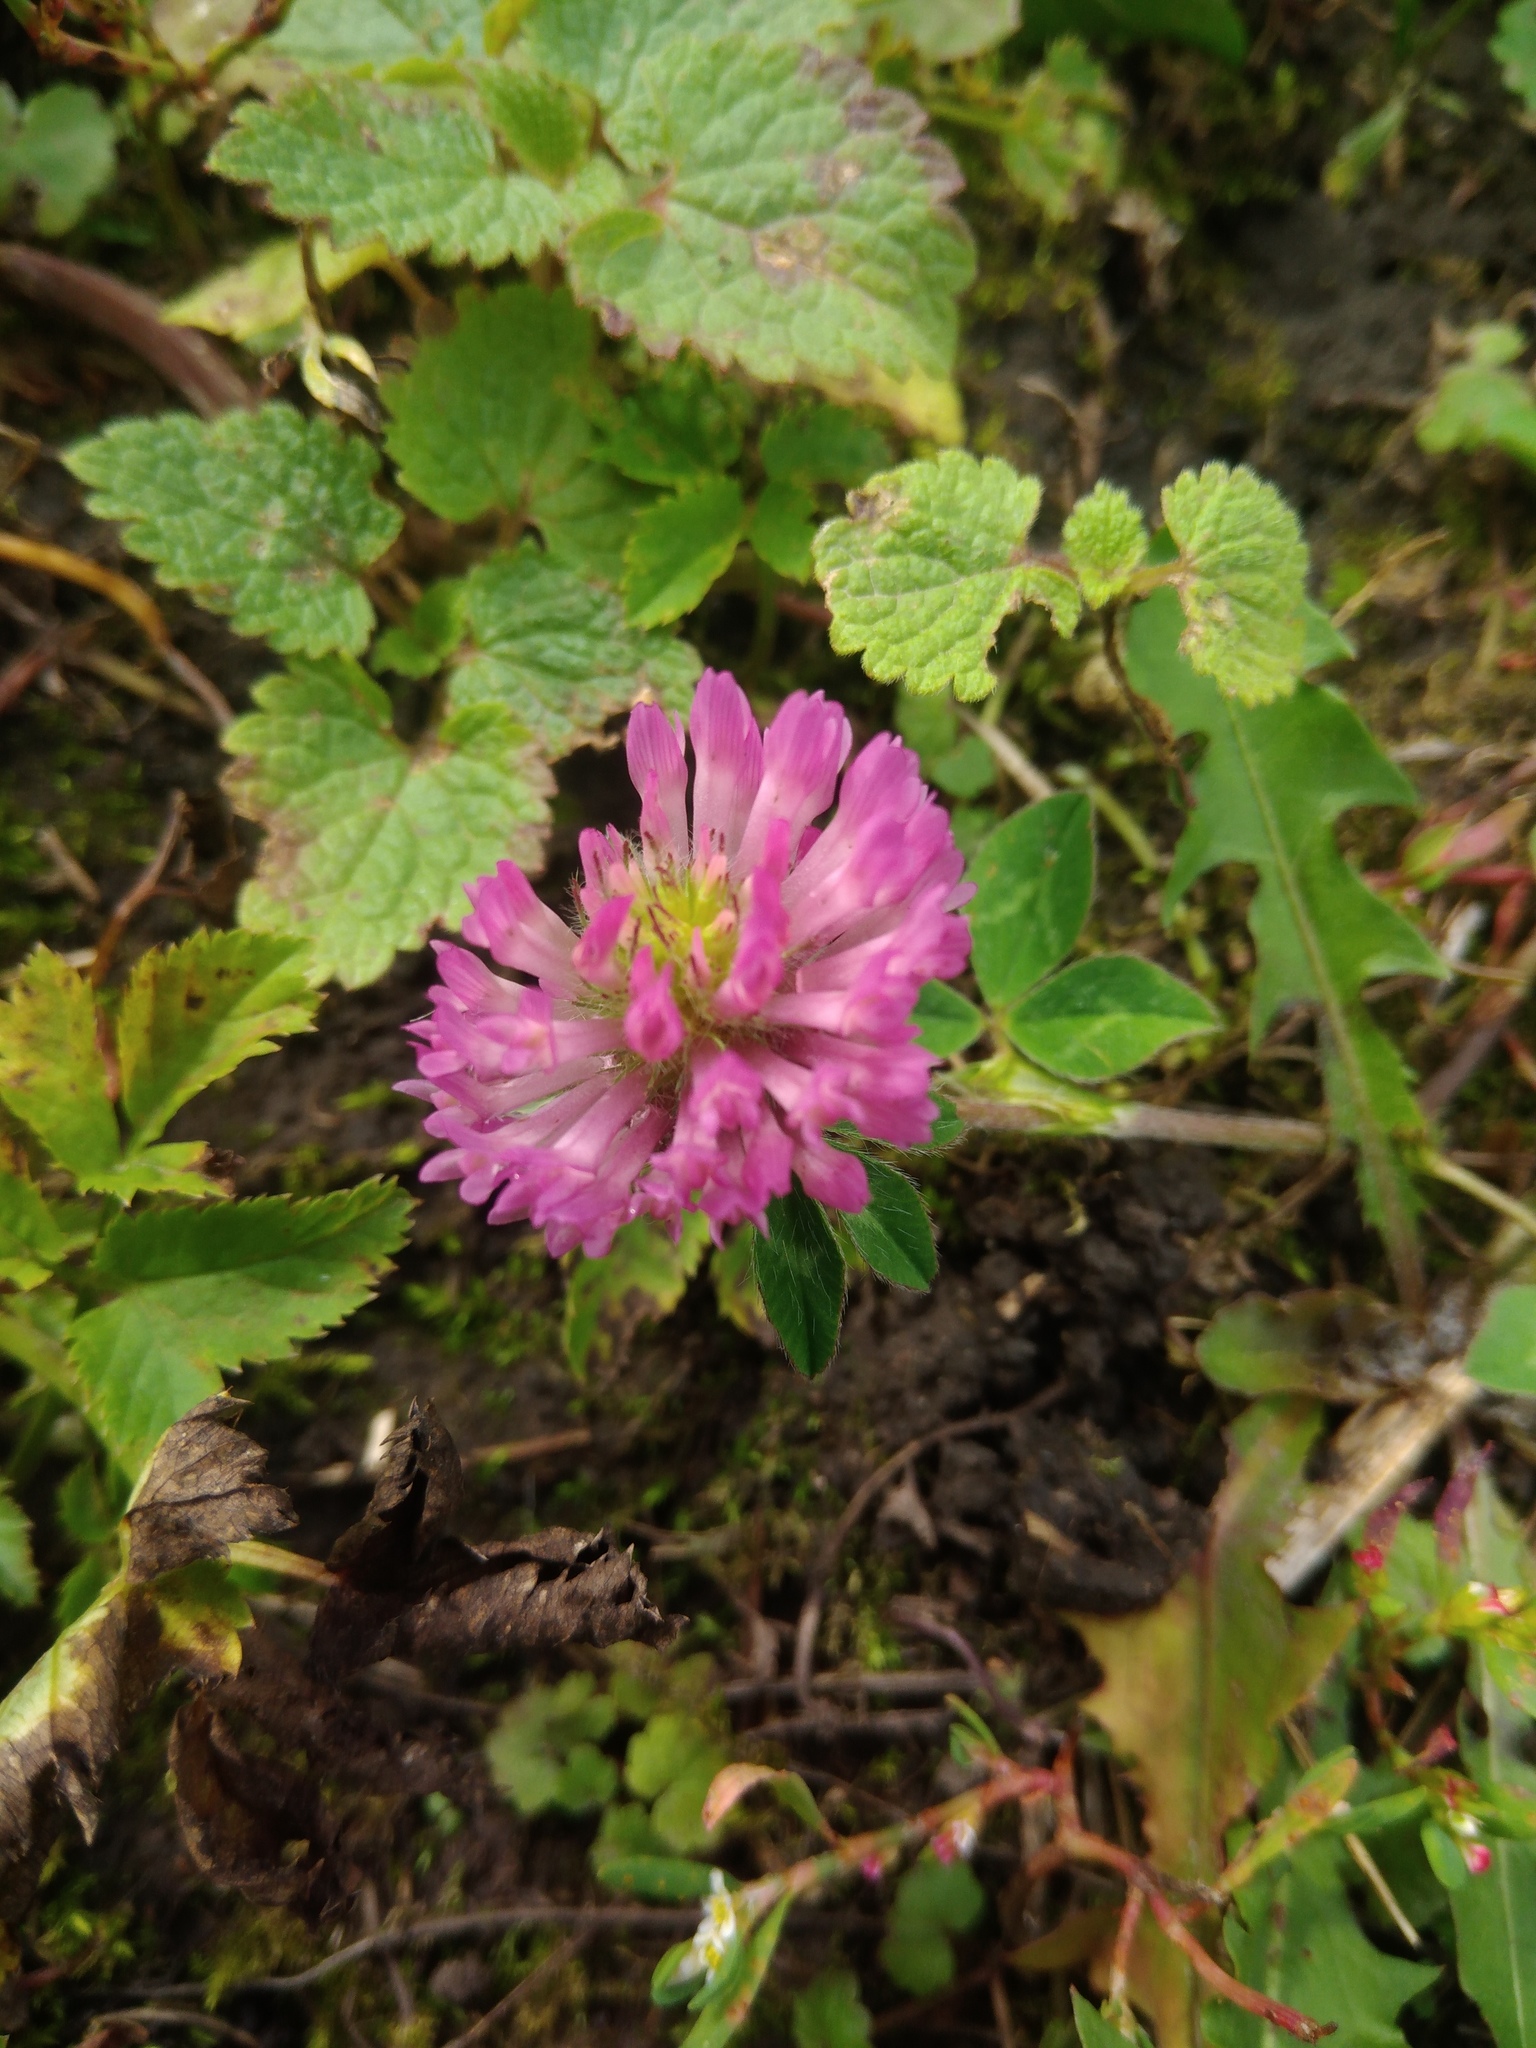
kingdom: Plantae
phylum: Tracheophyta
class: Magnoliopsida
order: Fabales
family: Fabaceae
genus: Trifolium
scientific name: Trifolium pratense
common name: Red clover
